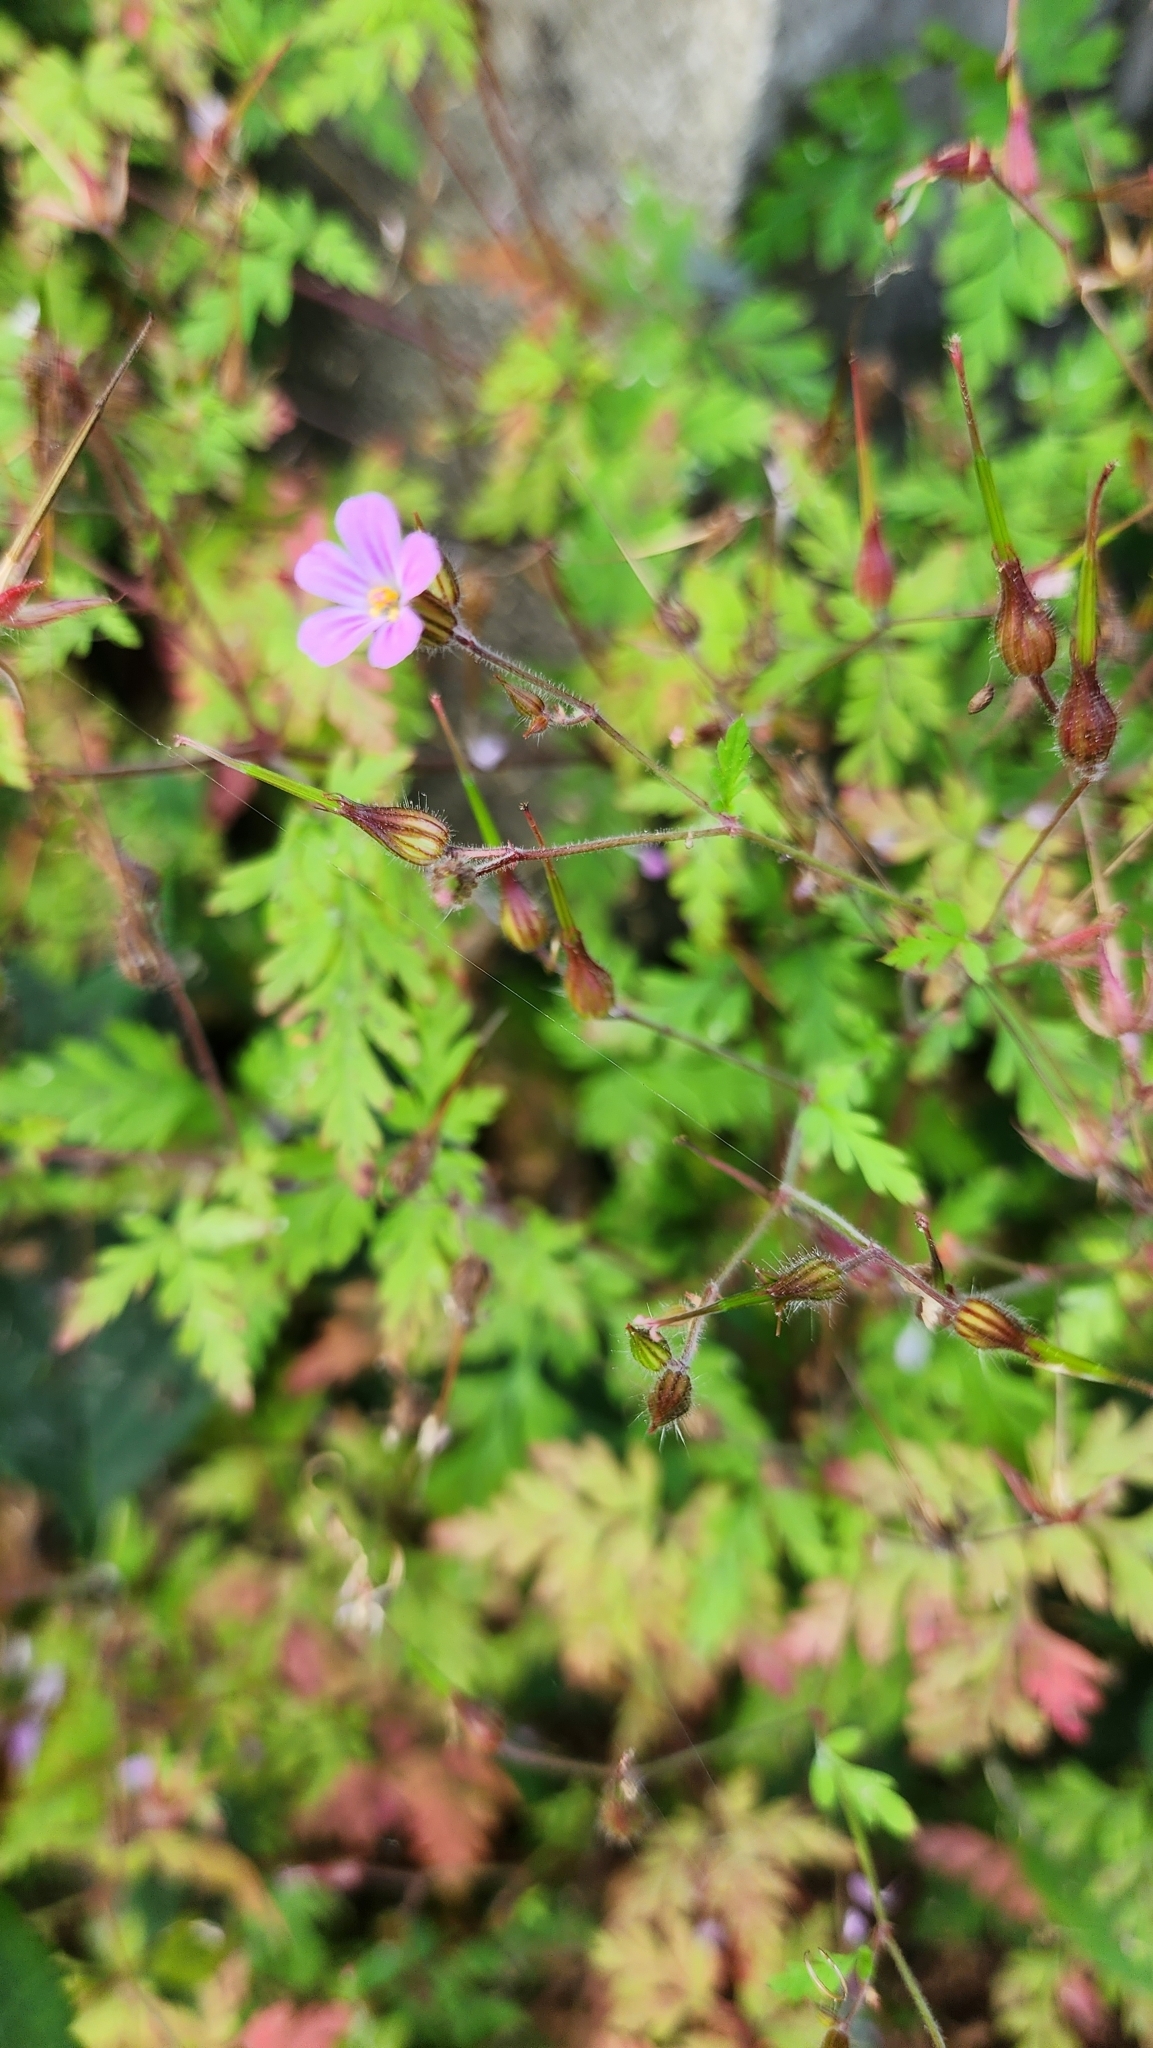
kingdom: Plantae
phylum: Tracheophyta
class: Magnoliopsida
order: Geraniales
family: Geraniaceae
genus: Geranium
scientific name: Geranium robertianum
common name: Herb-robert
